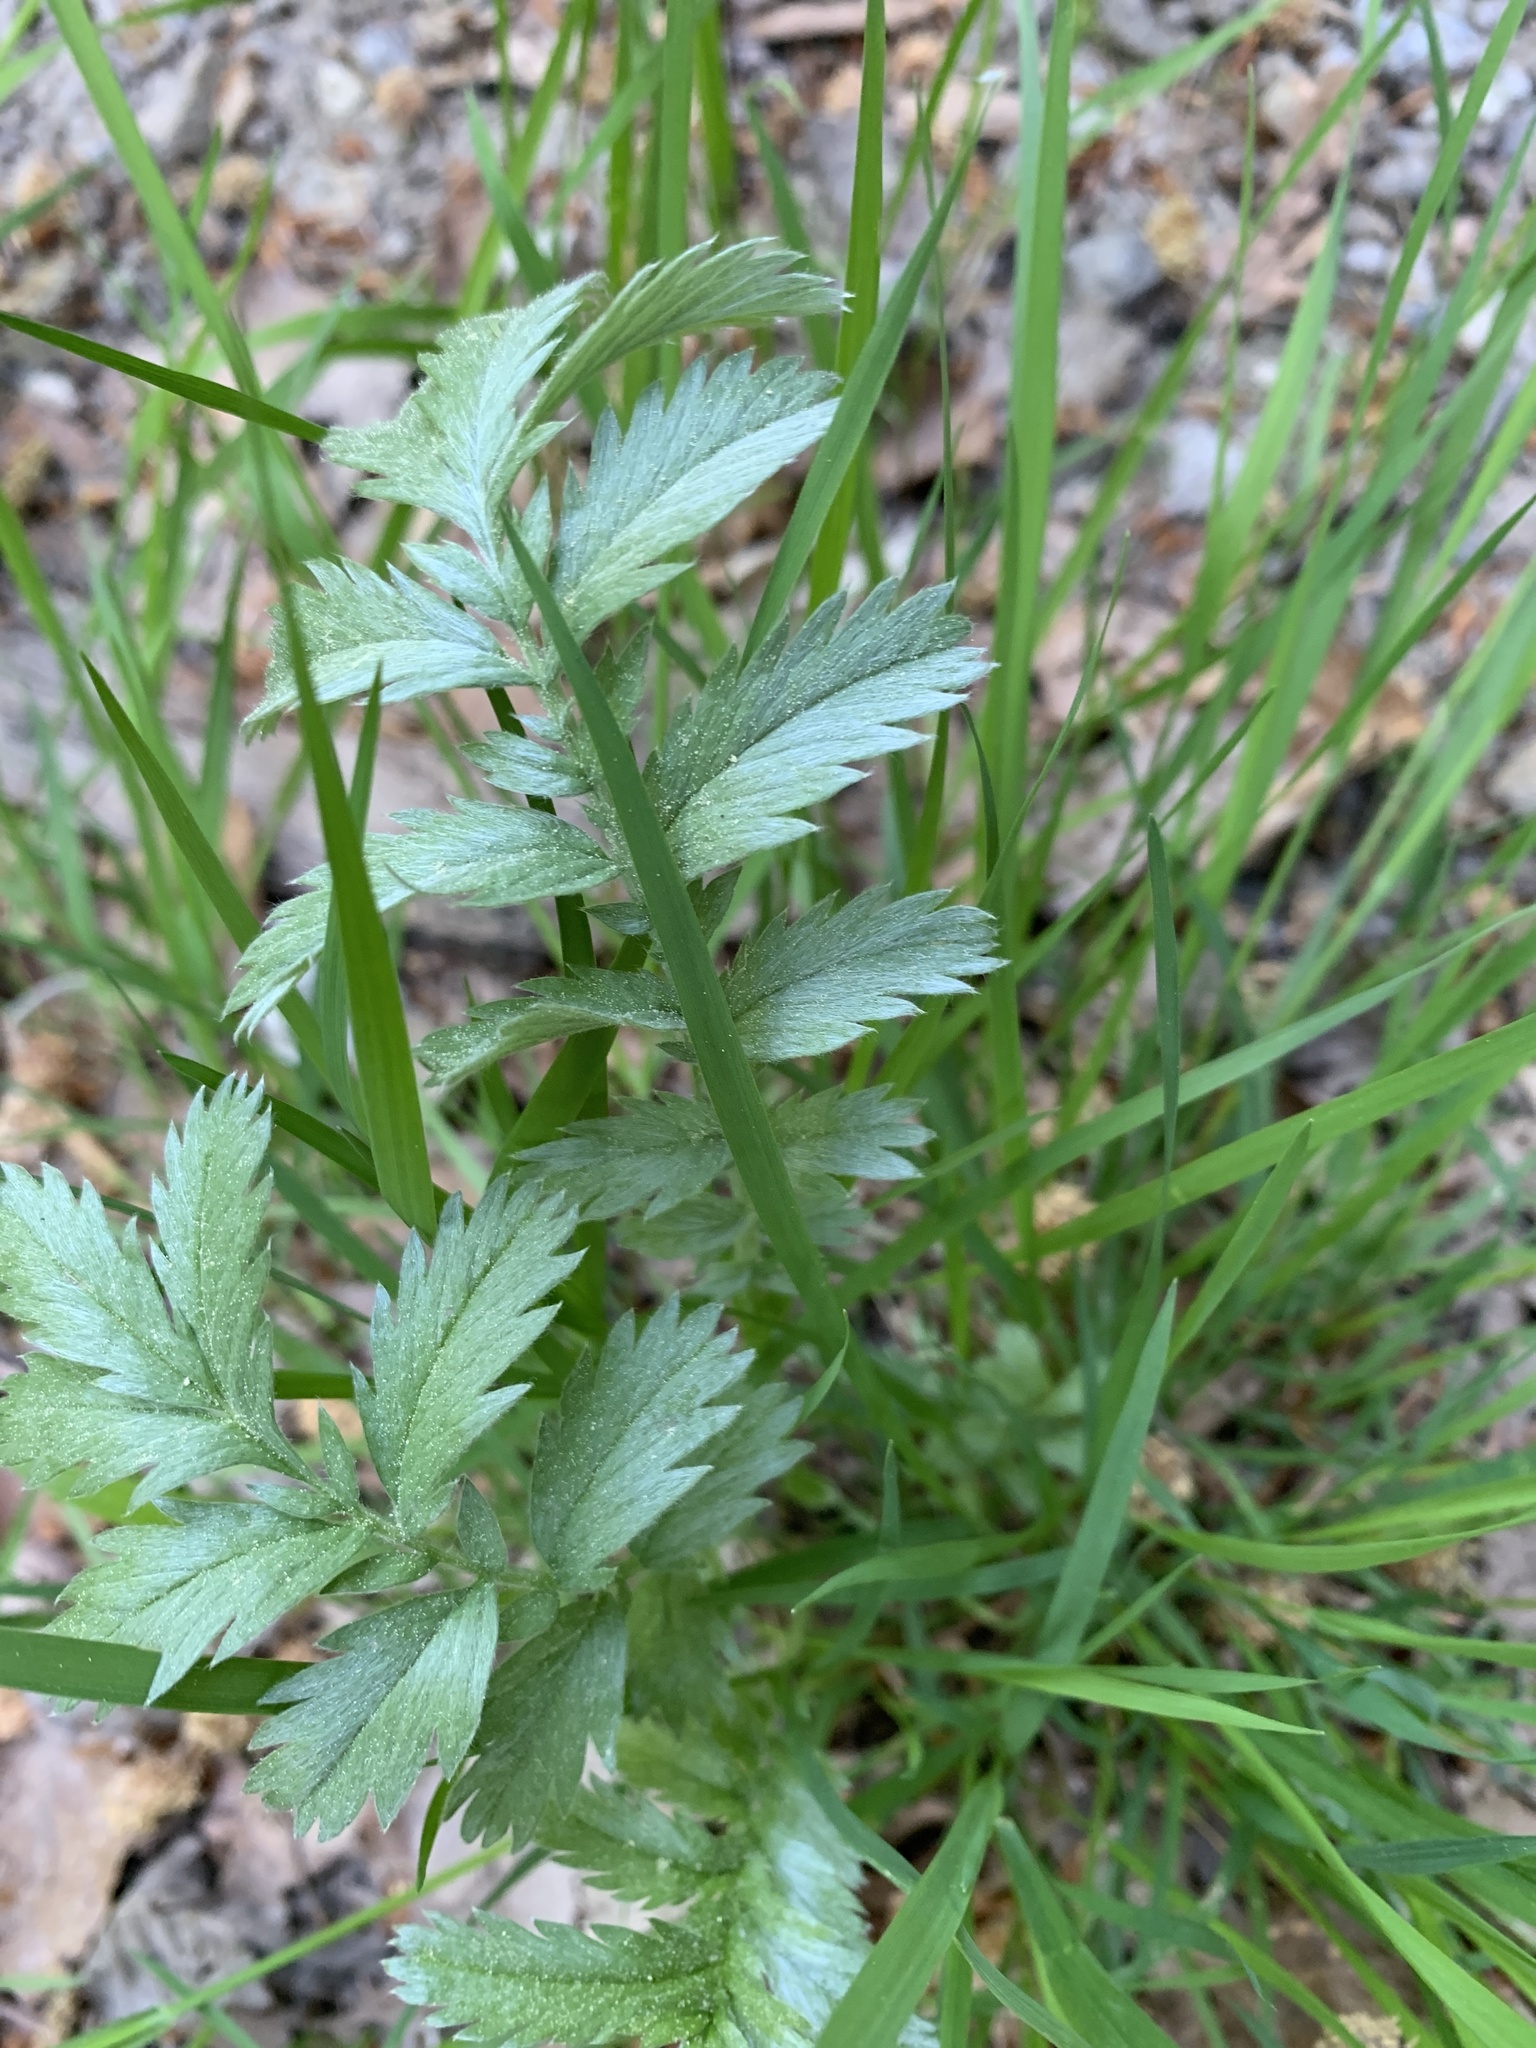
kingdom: Plantae
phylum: Tracheophyta
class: Magnoliopsida
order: Rosales
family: Rosaceae
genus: Argentina
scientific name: Argentina anserina
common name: Common silverweed
